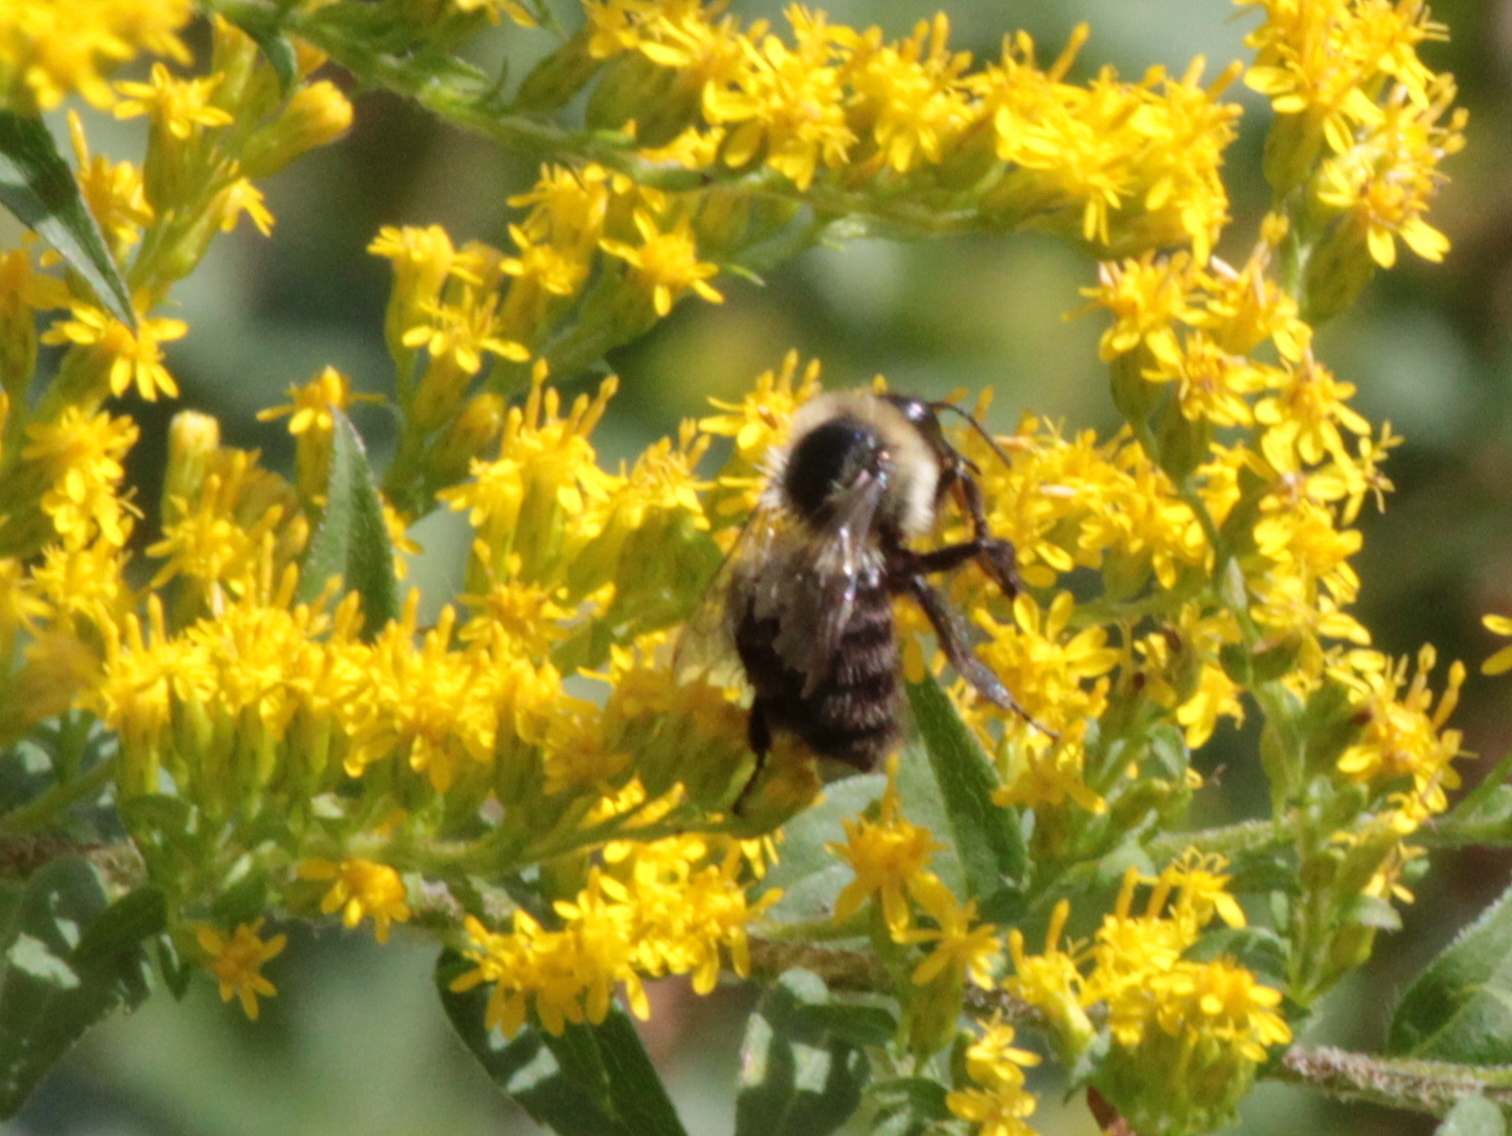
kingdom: Animalia
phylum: Arthropoda
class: Insecta
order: Hymenoptera
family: Apidae
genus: Bombus
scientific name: Bombus impatiens
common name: Common eastern bumble bee
